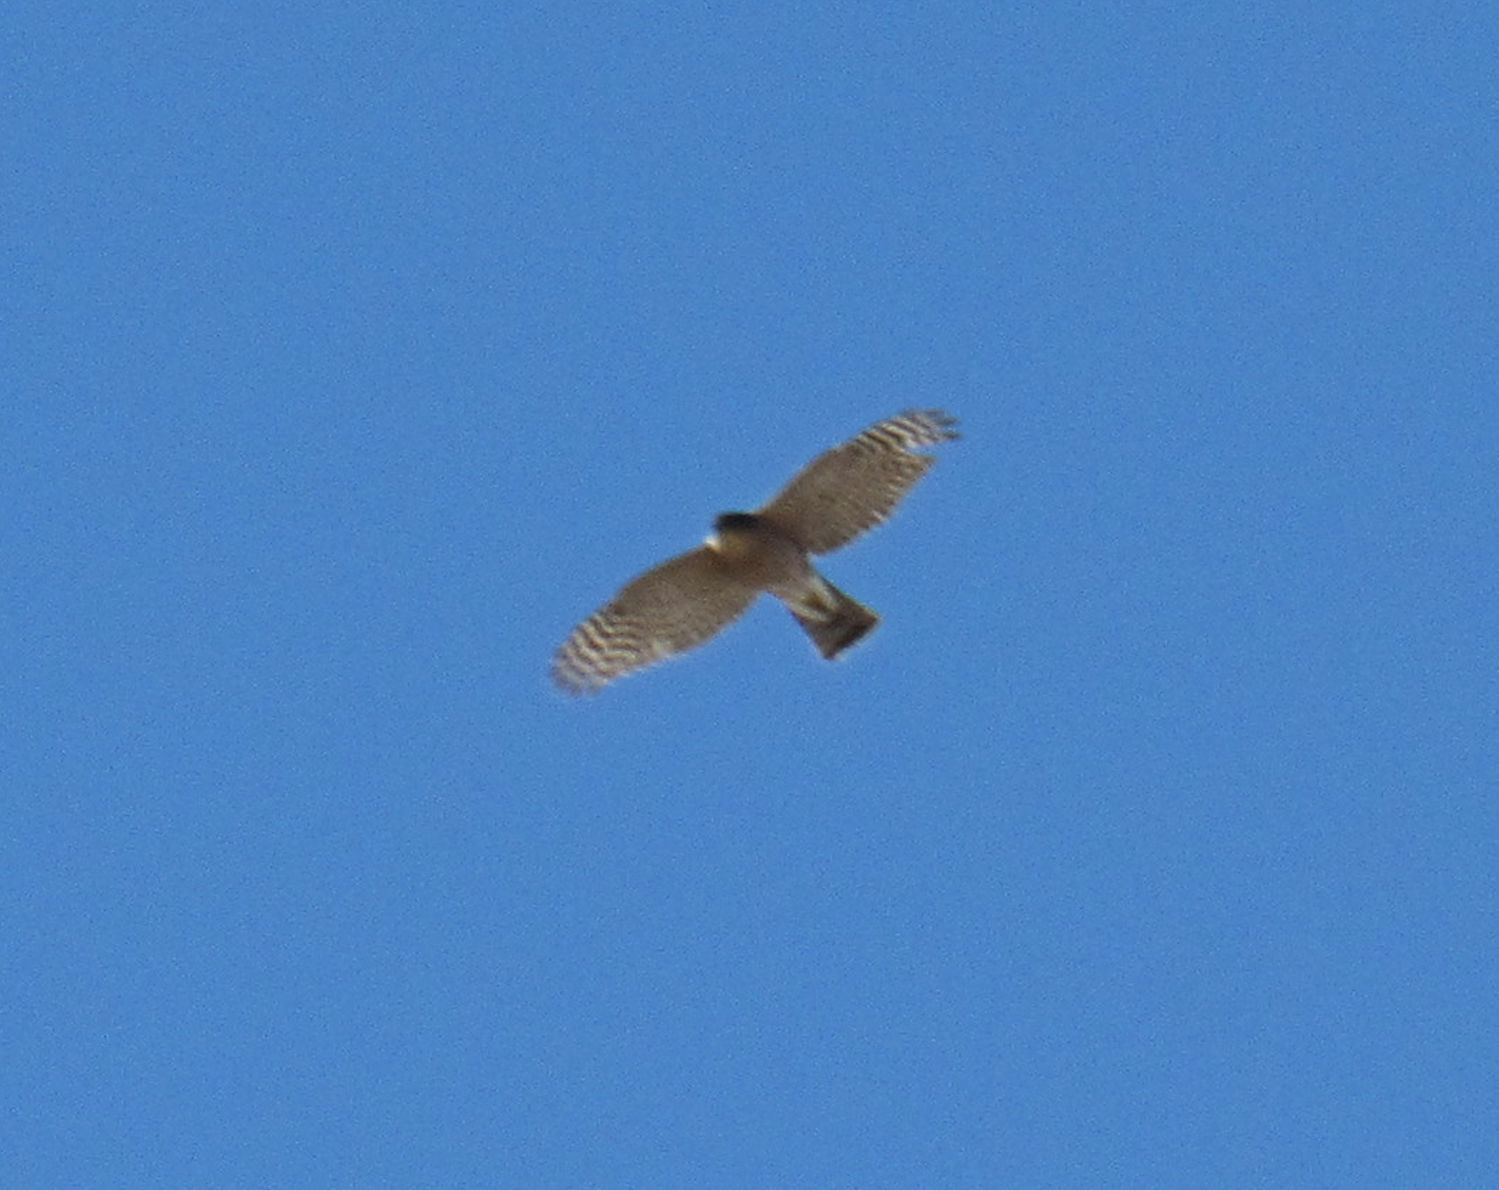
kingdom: Animalia
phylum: Chordata
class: Aves
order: Accipitriformes
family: Accipitridae
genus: Accipiter
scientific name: Accipiter striatus
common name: Sharp-shinned hawk
